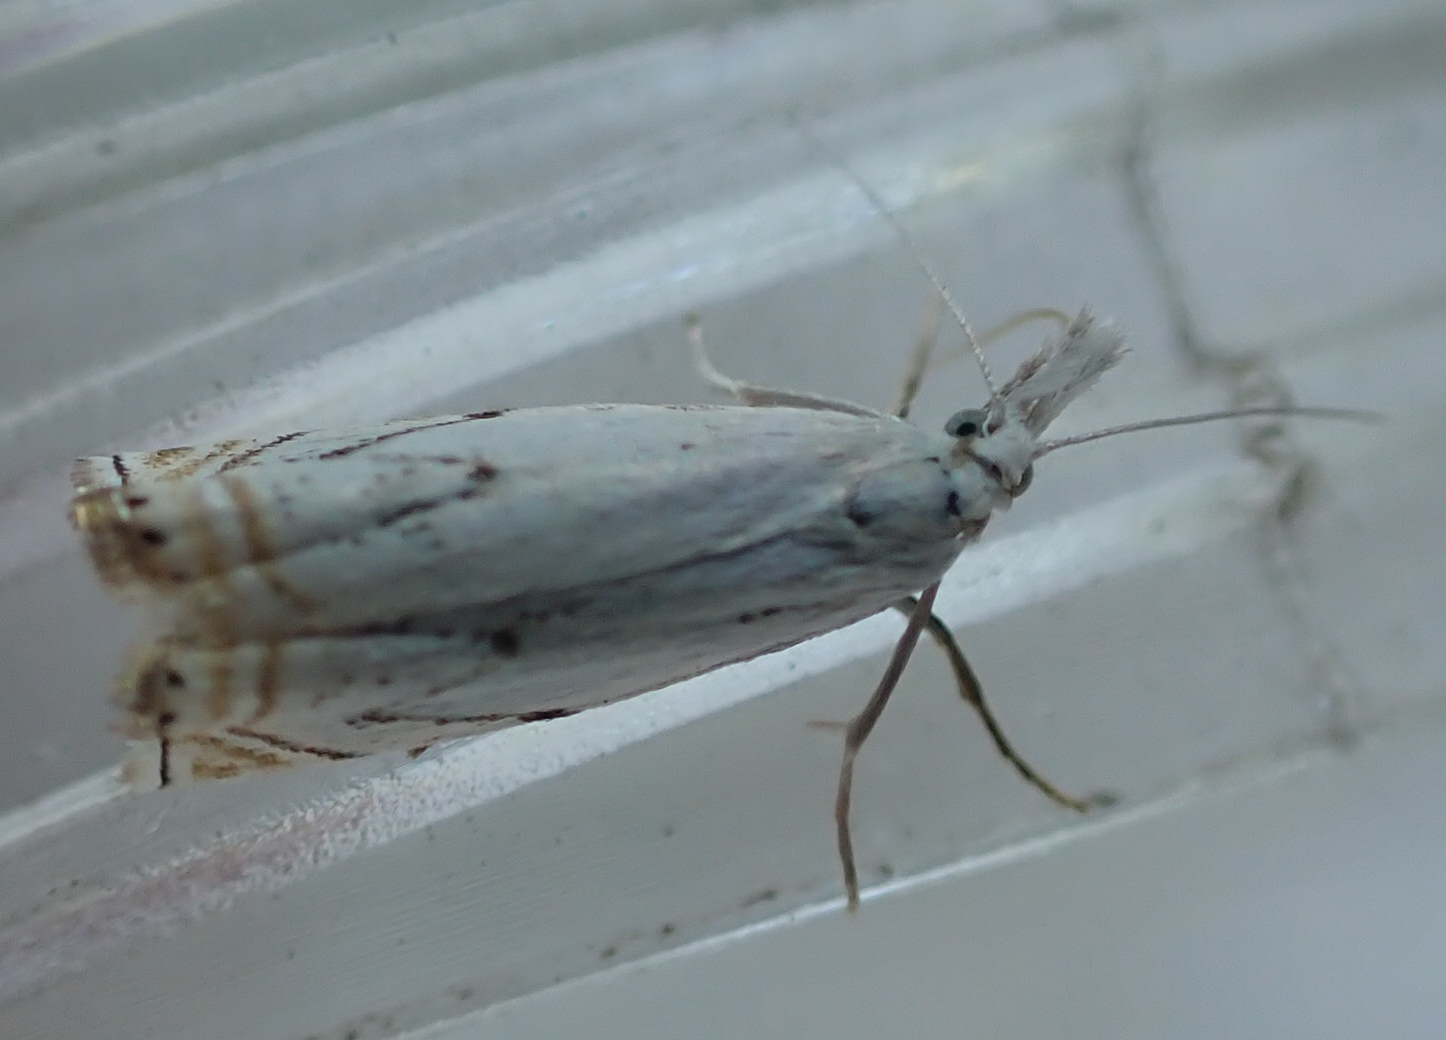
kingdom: Animalia
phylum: Arthropoda
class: Insecta
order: Lepidoptera
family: Crambidae
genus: Crambus
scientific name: Crambus albellus
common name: Small white grass-veneer
